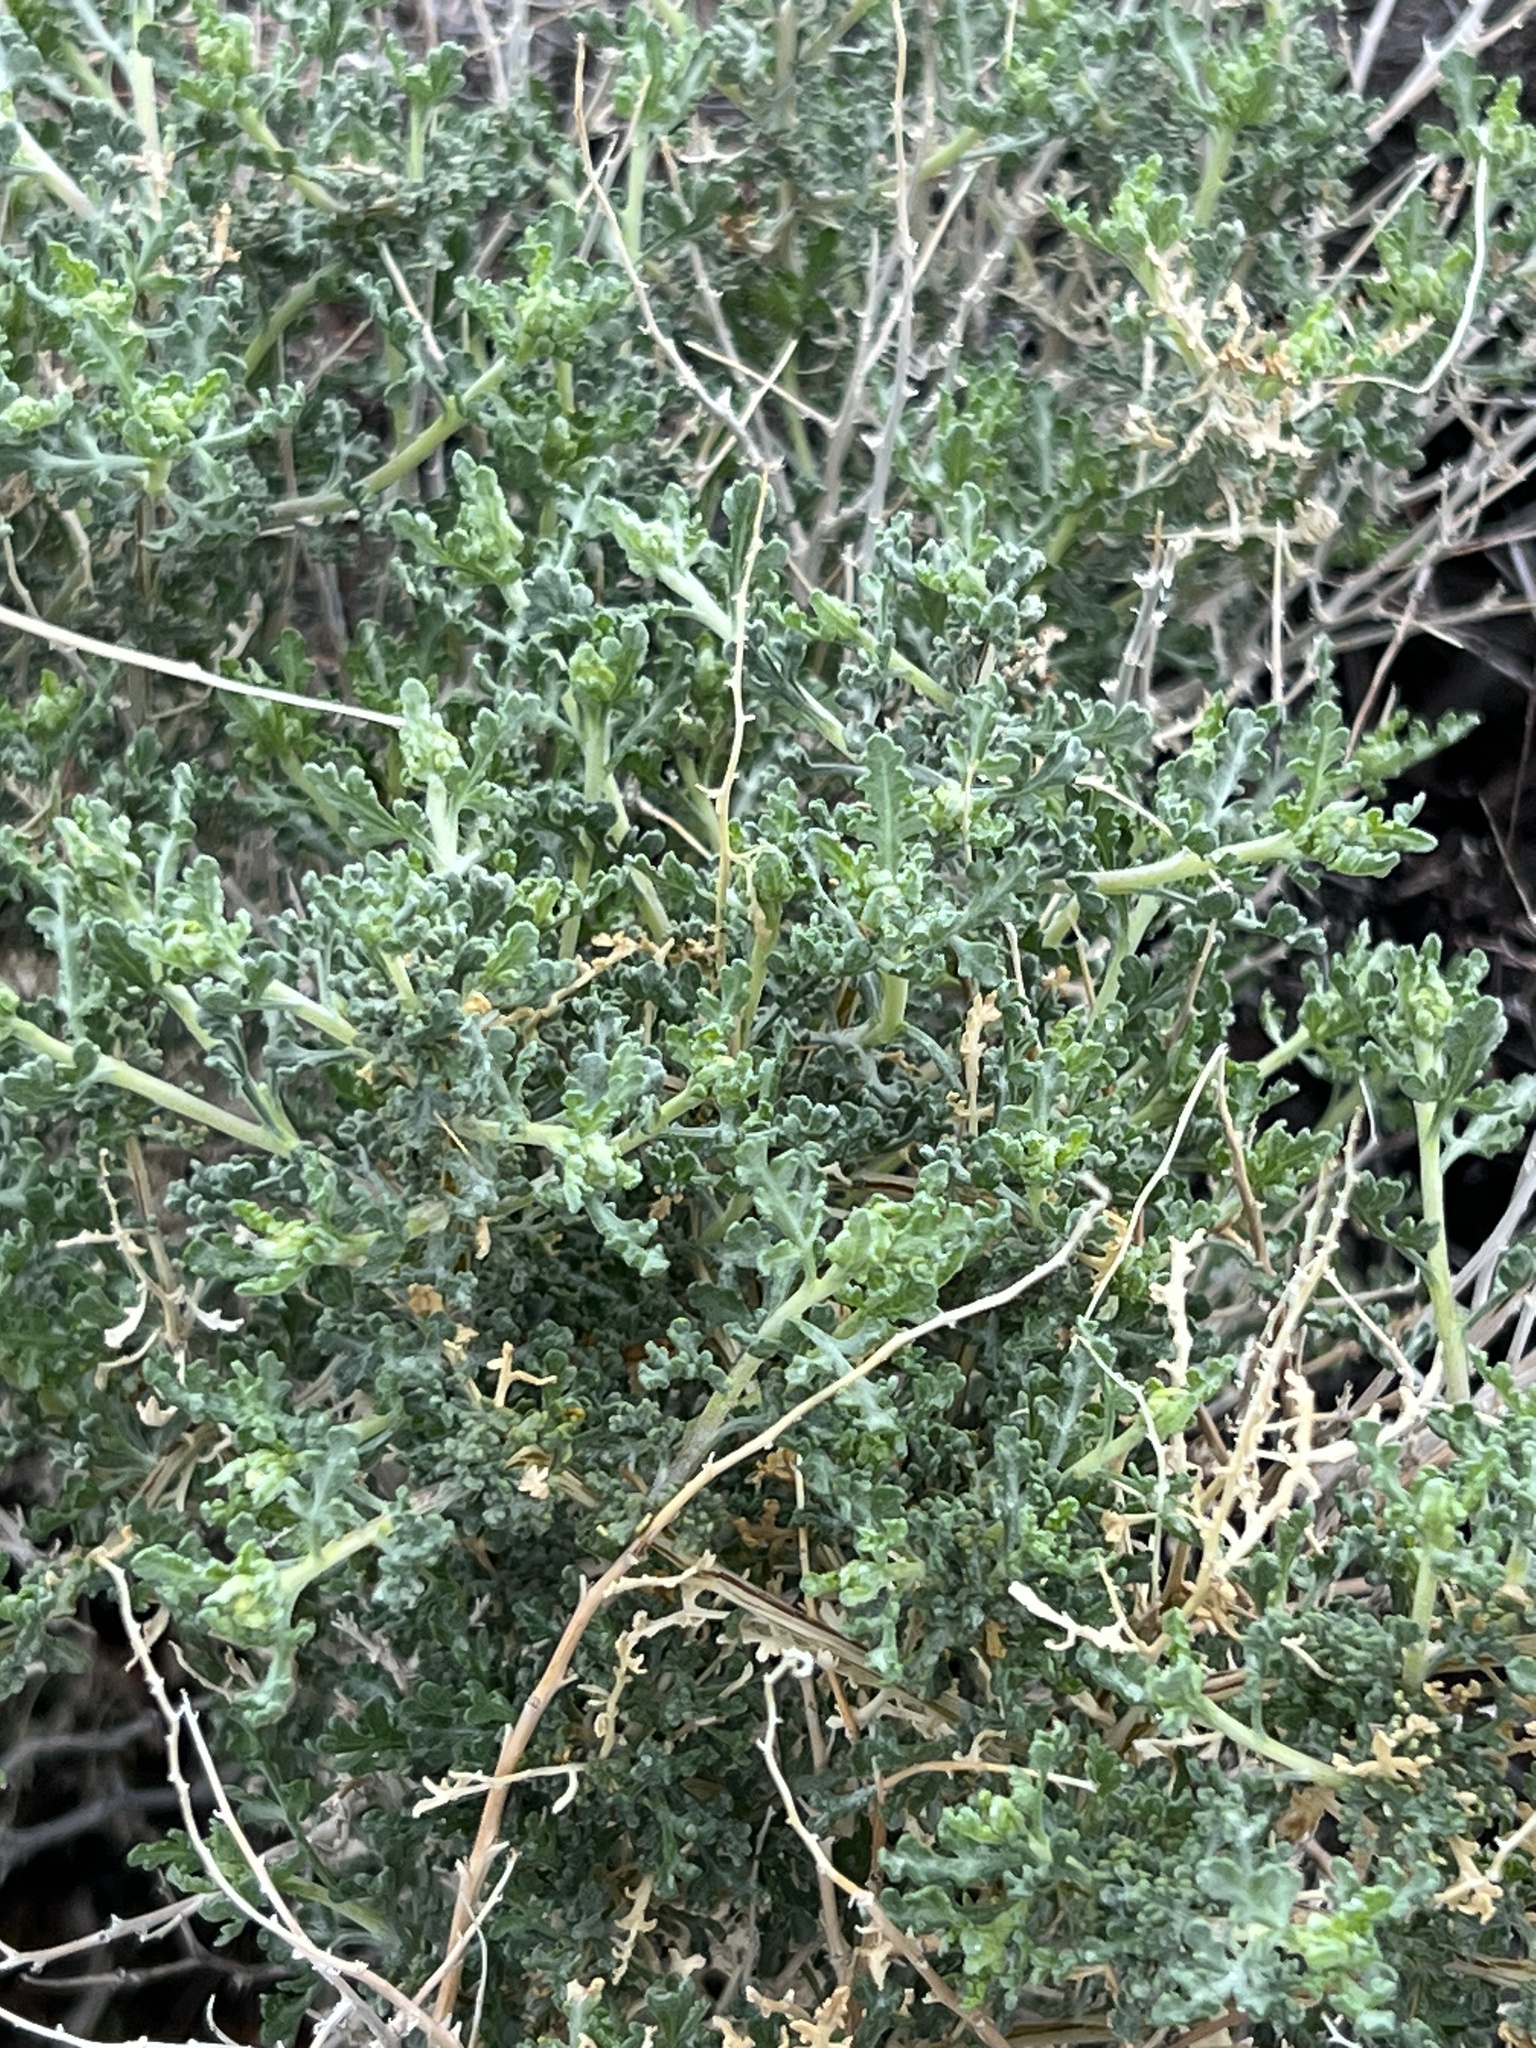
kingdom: Plantae
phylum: Tracheophyta
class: Magnoliopsida
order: Asterales
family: Asteraceae
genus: Ambrosia
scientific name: Ambrosia dumosa
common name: Bur-sage
